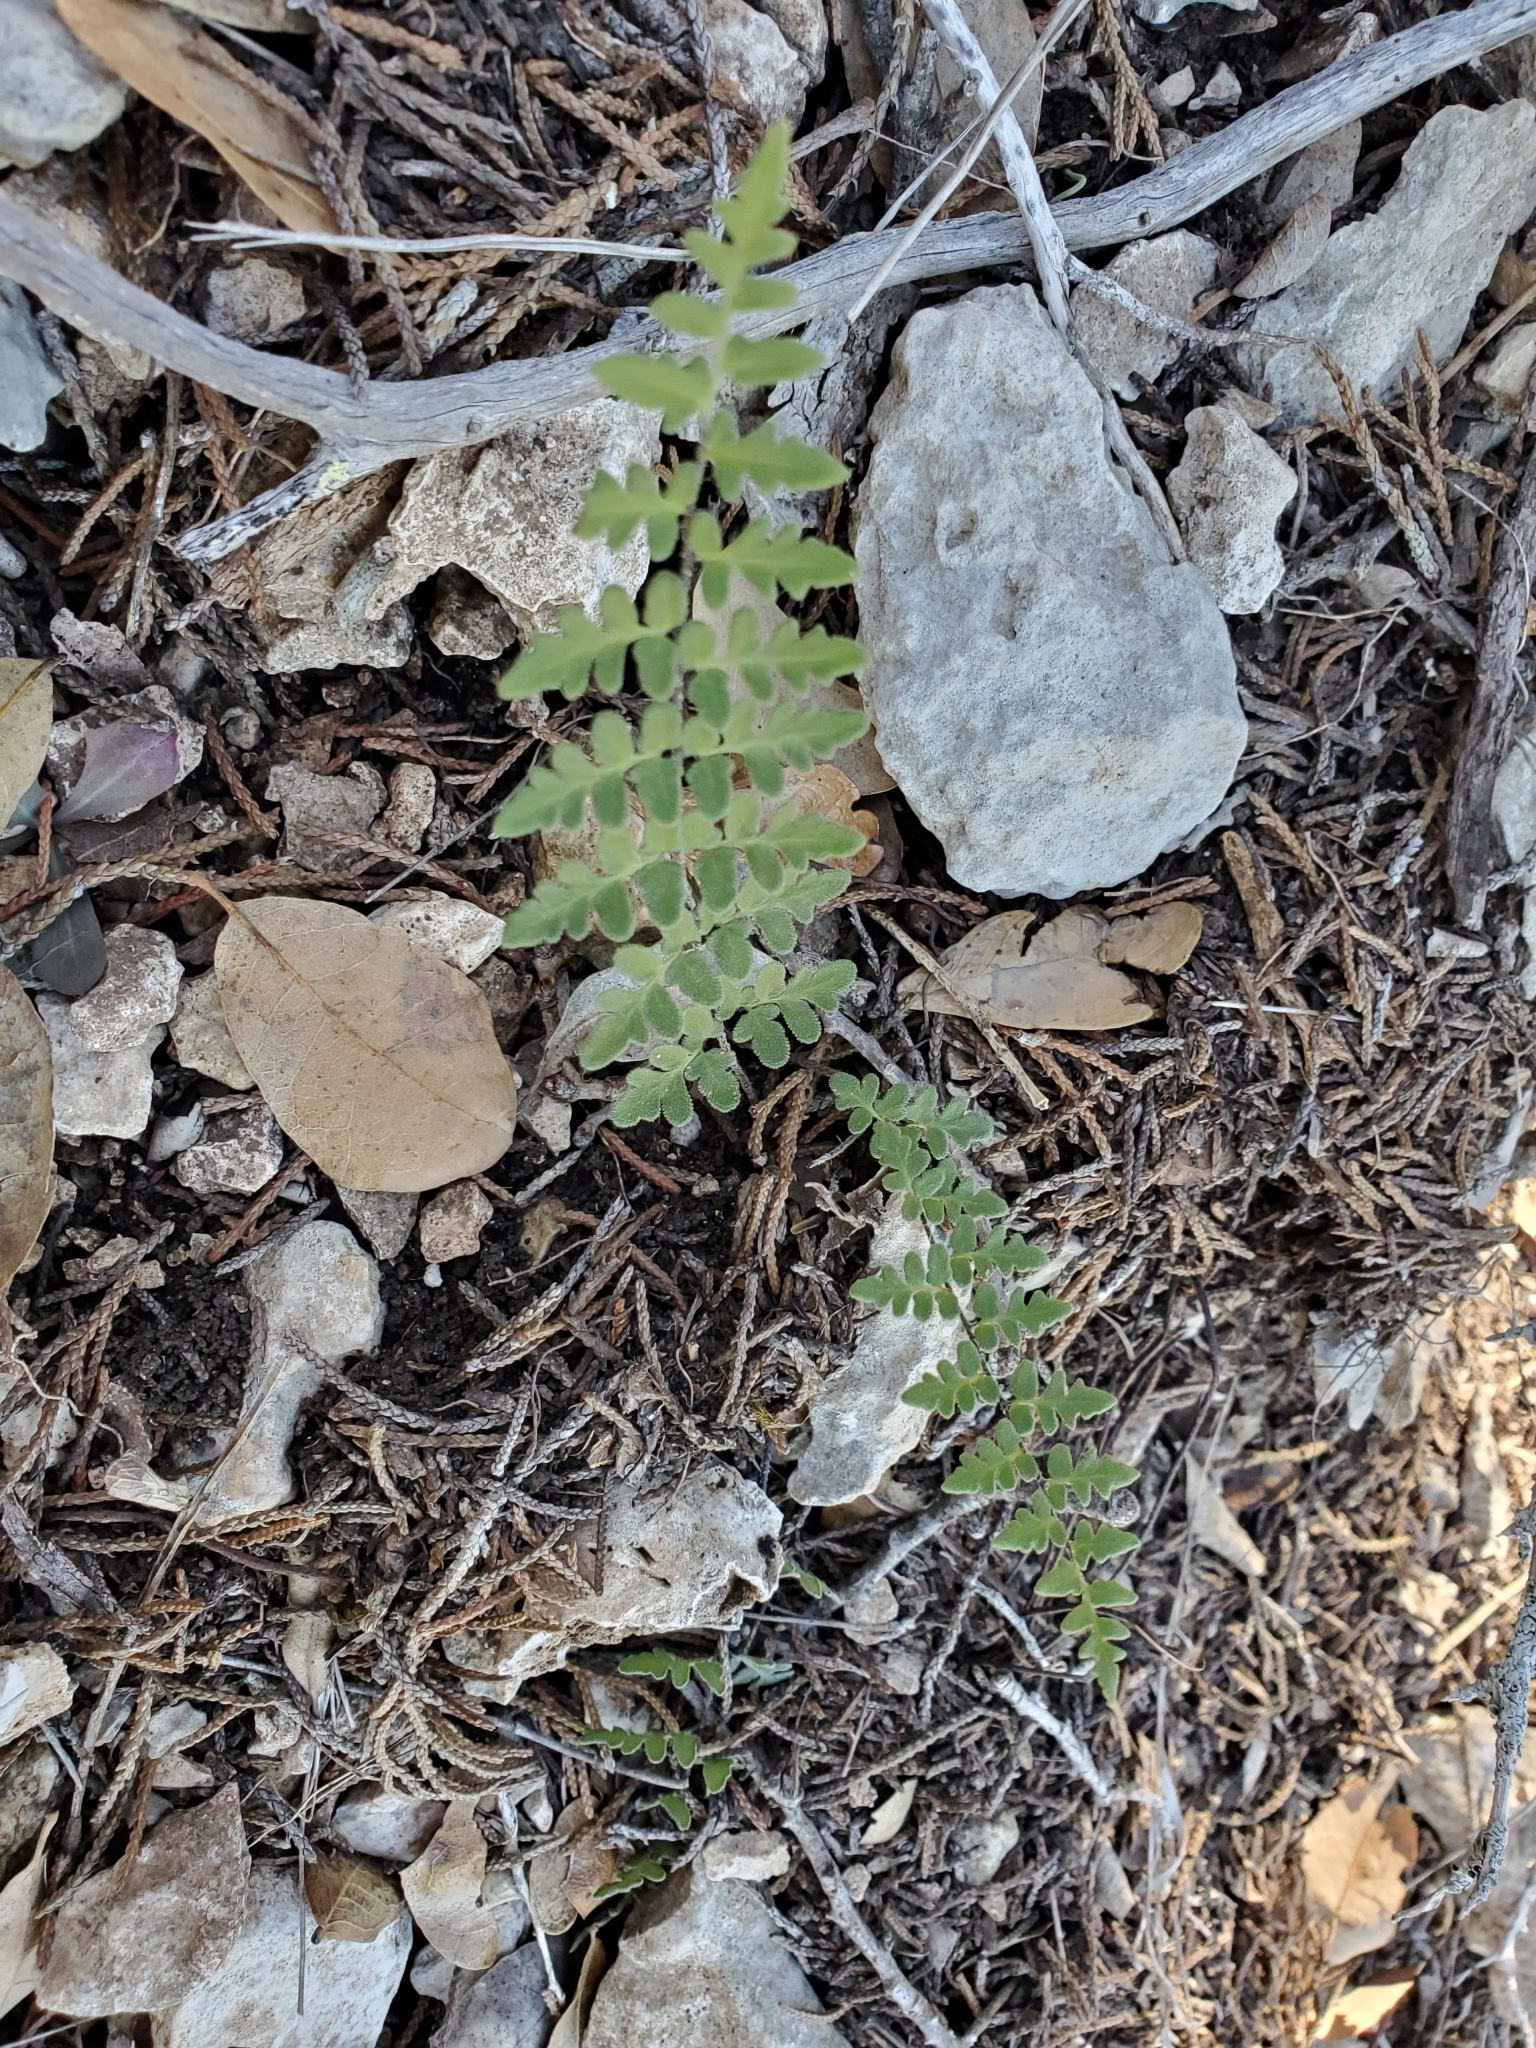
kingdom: Plantae
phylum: Tracheophyta
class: Polypodiopsida
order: Polypodiales
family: Pteridaceae
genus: Myriopteris
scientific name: Myriopteris scabra
